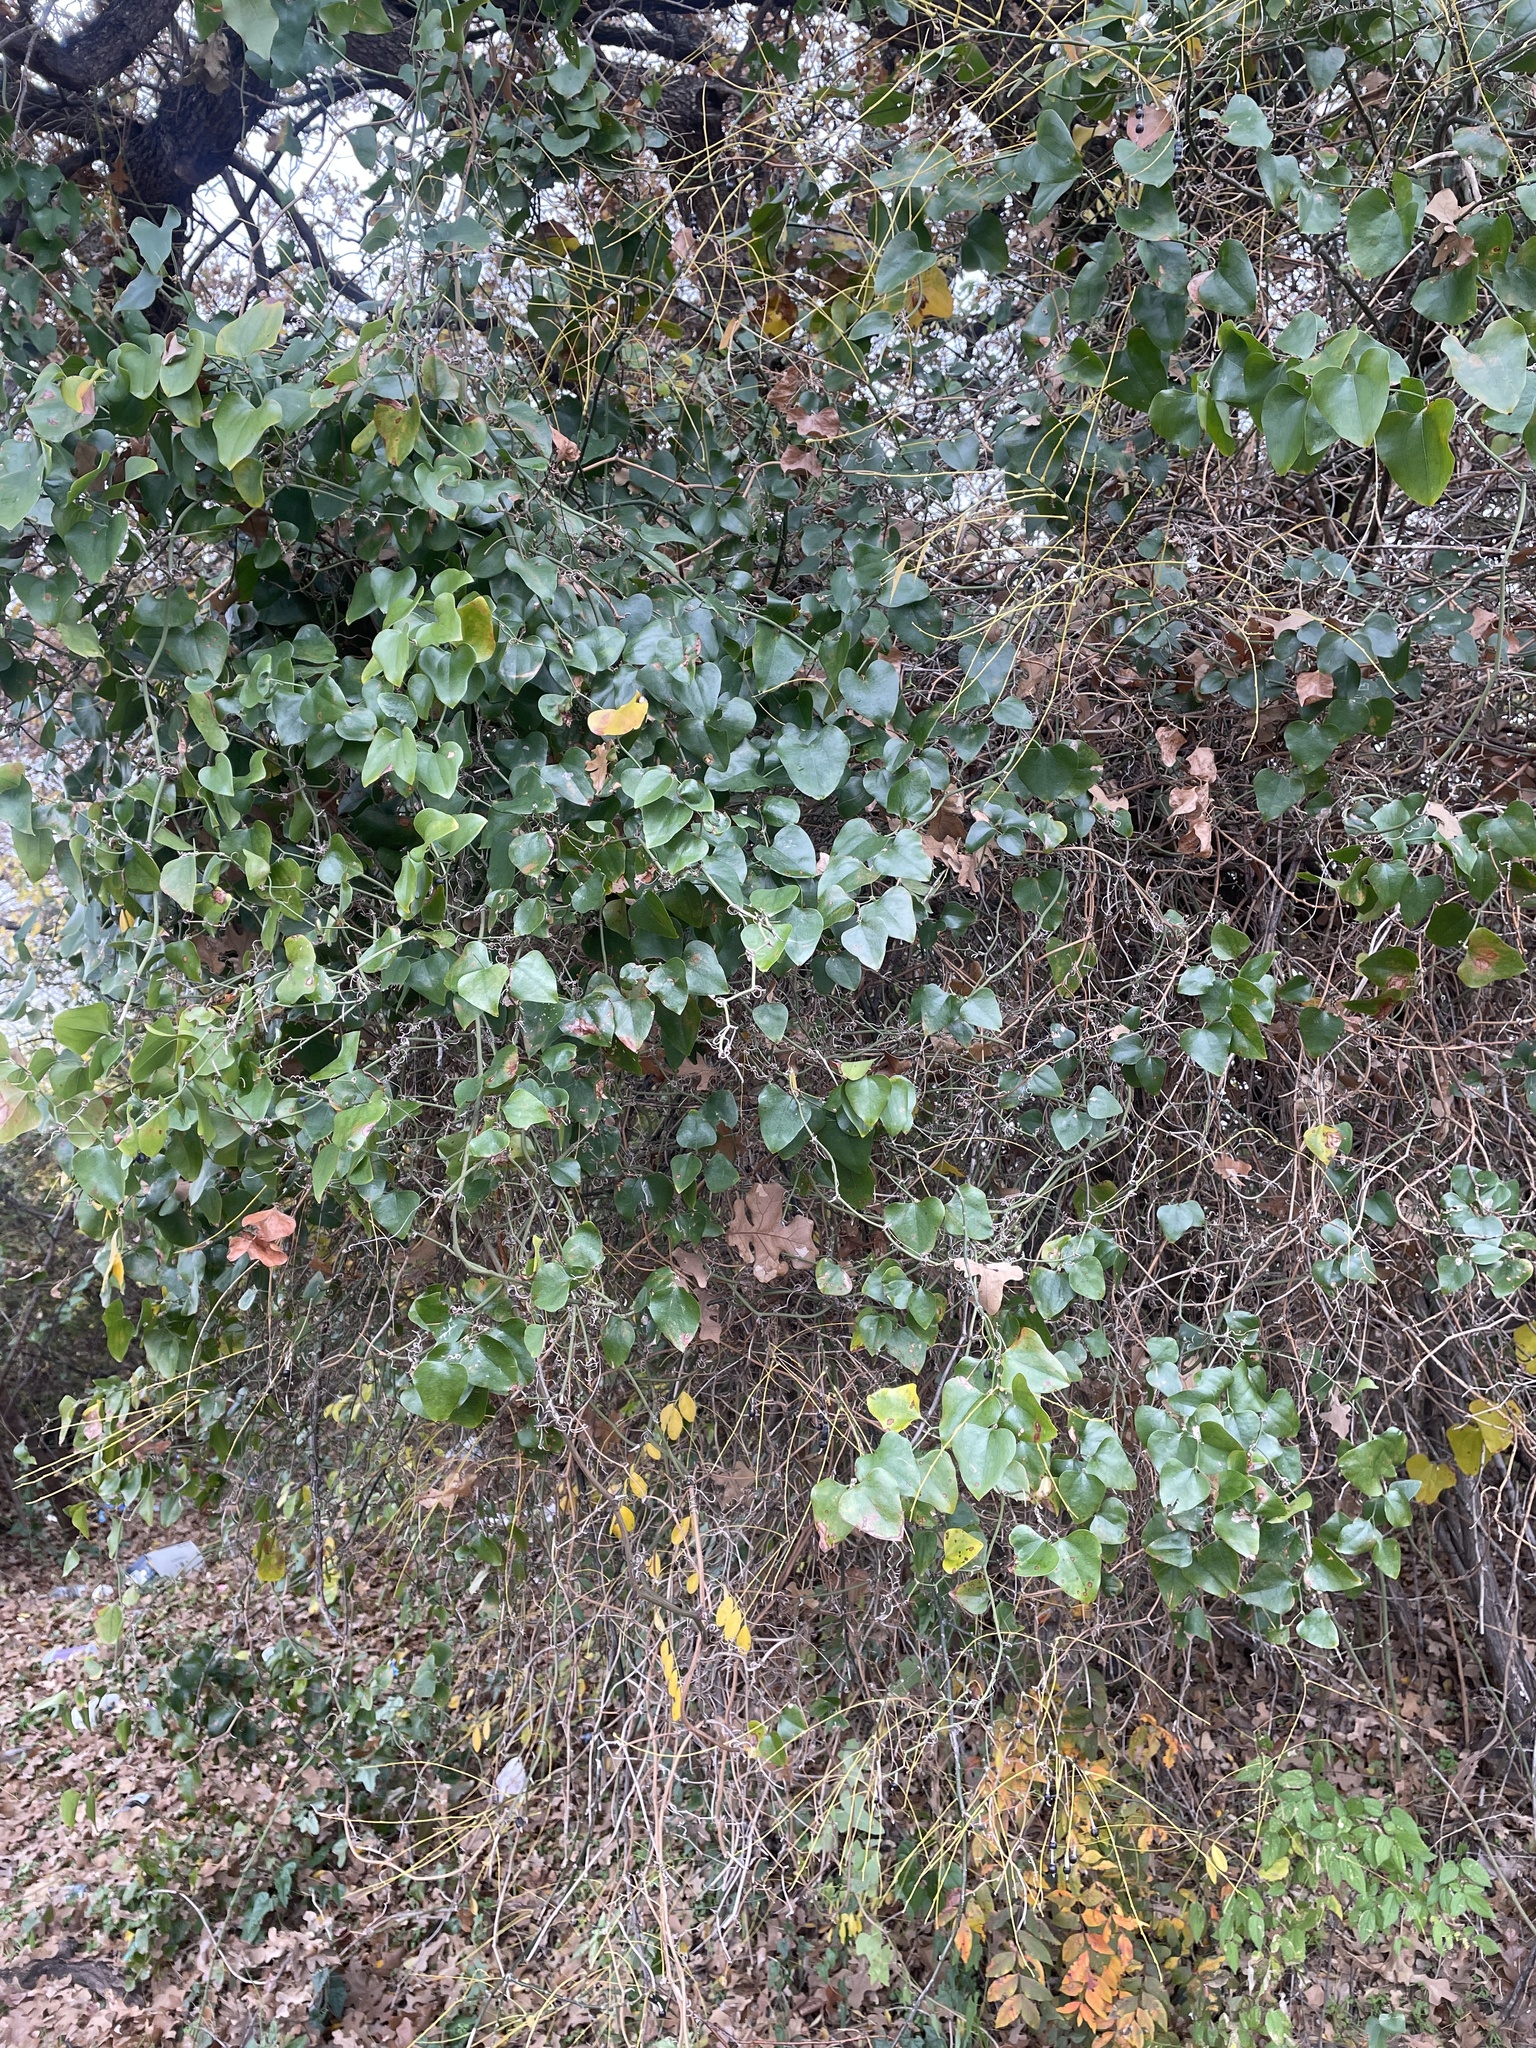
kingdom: Plantae
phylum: Tracheophyta
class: Liliopsida
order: Liliales
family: Smilacaceae
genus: Smilax
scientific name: Smilax bona-nox
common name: Catbrier
